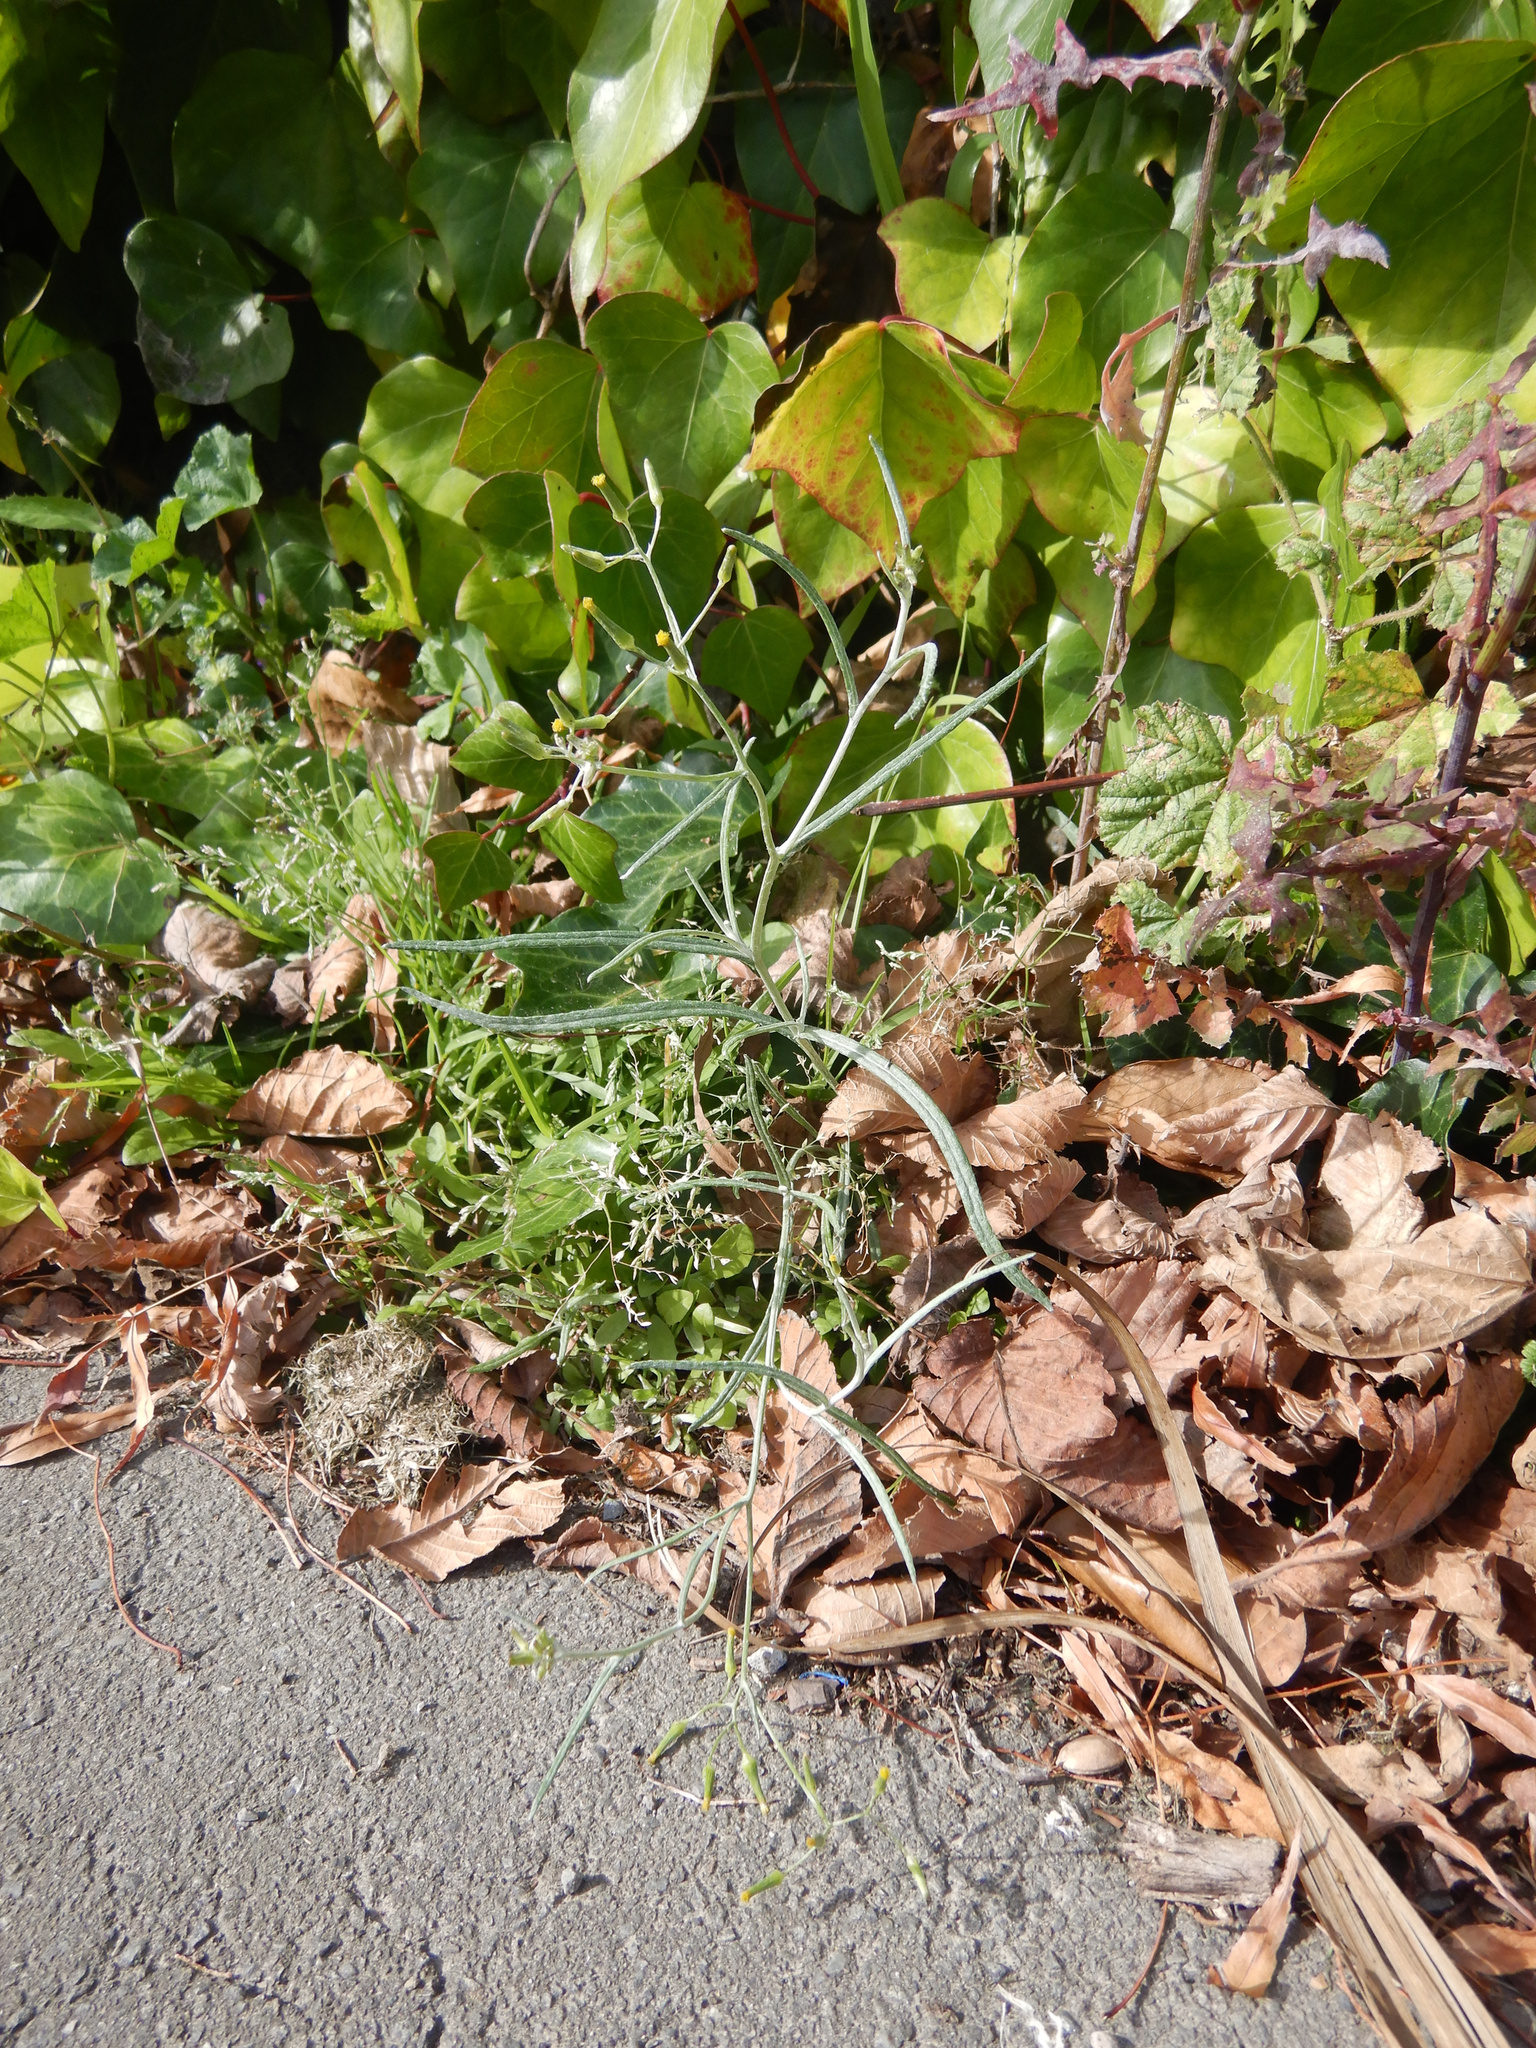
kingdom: Plantae
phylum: Tracheophyta
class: Magnoliopsida
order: Asterales
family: Asteraceae
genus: Senecio
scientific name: Senecio quadridentatus
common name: Cotton fireweed
